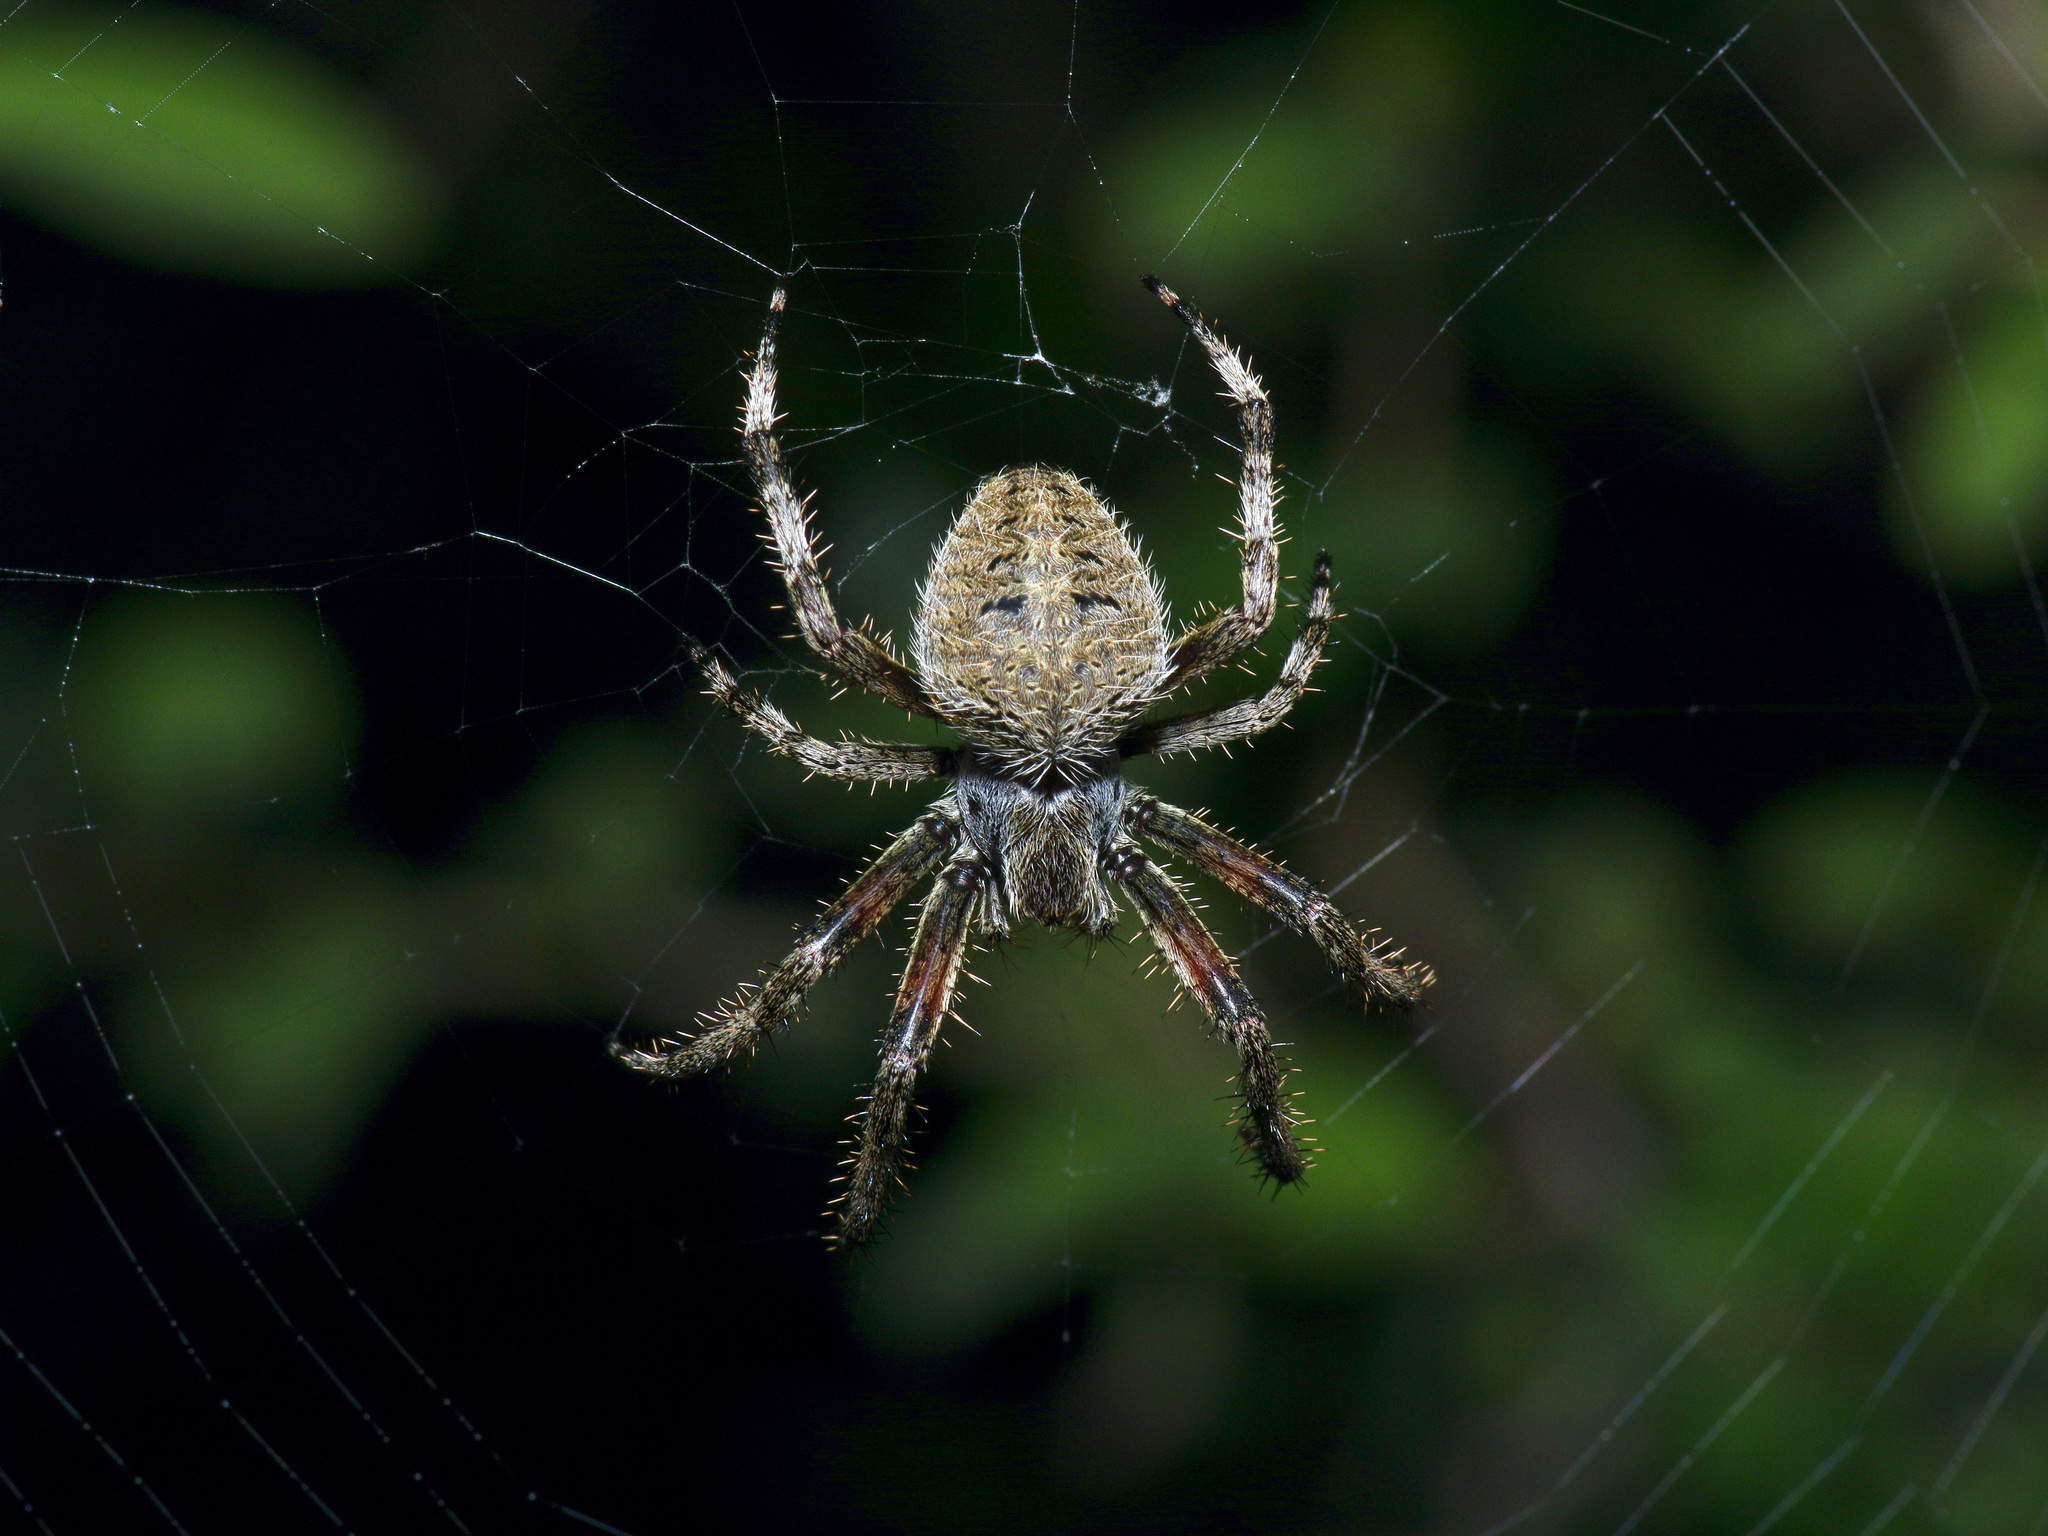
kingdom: Animalia
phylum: Arthropoda
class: Arachnida
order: Araneae
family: Araneidae
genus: Neoscona
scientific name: Neoscona crucifera
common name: Spotted orbweaver
